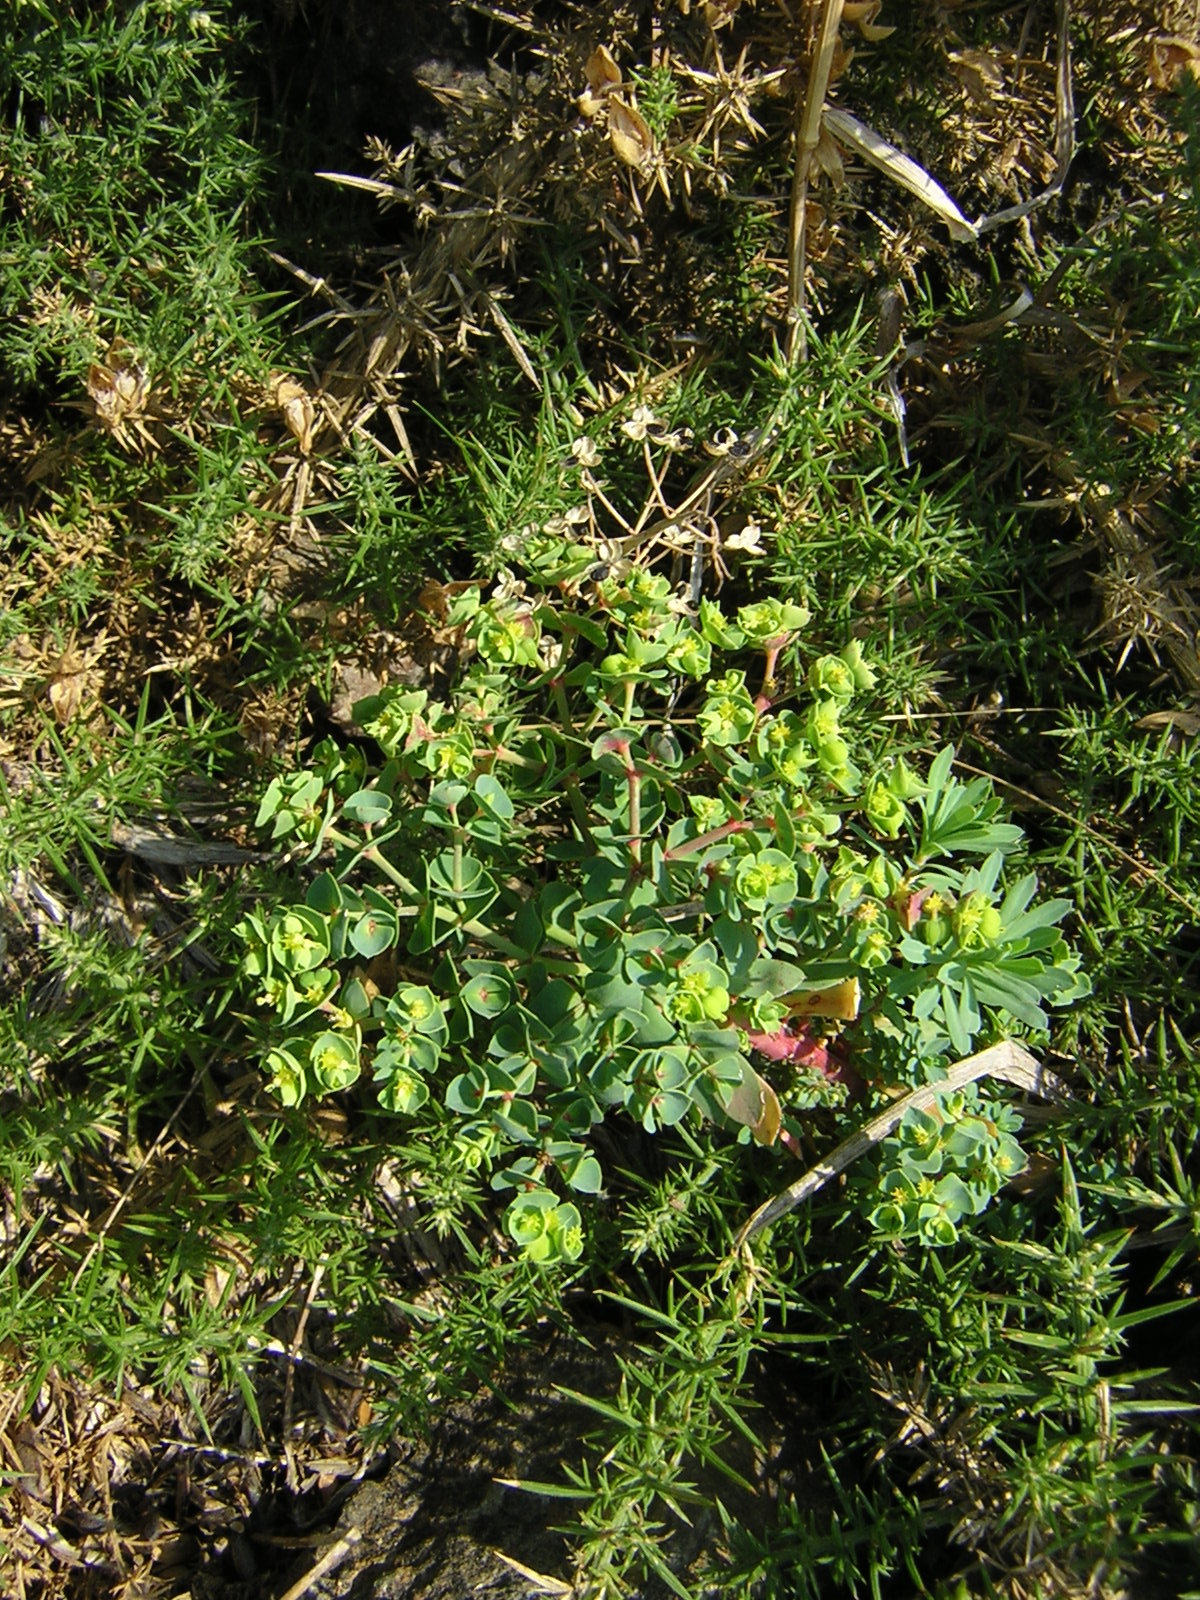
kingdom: Plantae
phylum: Tracheophyta
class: Magnoliopsida
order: Malpighiales
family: Euphorbiaceae
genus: Euphorbia
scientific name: Euphorbia portlandica
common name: Portland spurge
